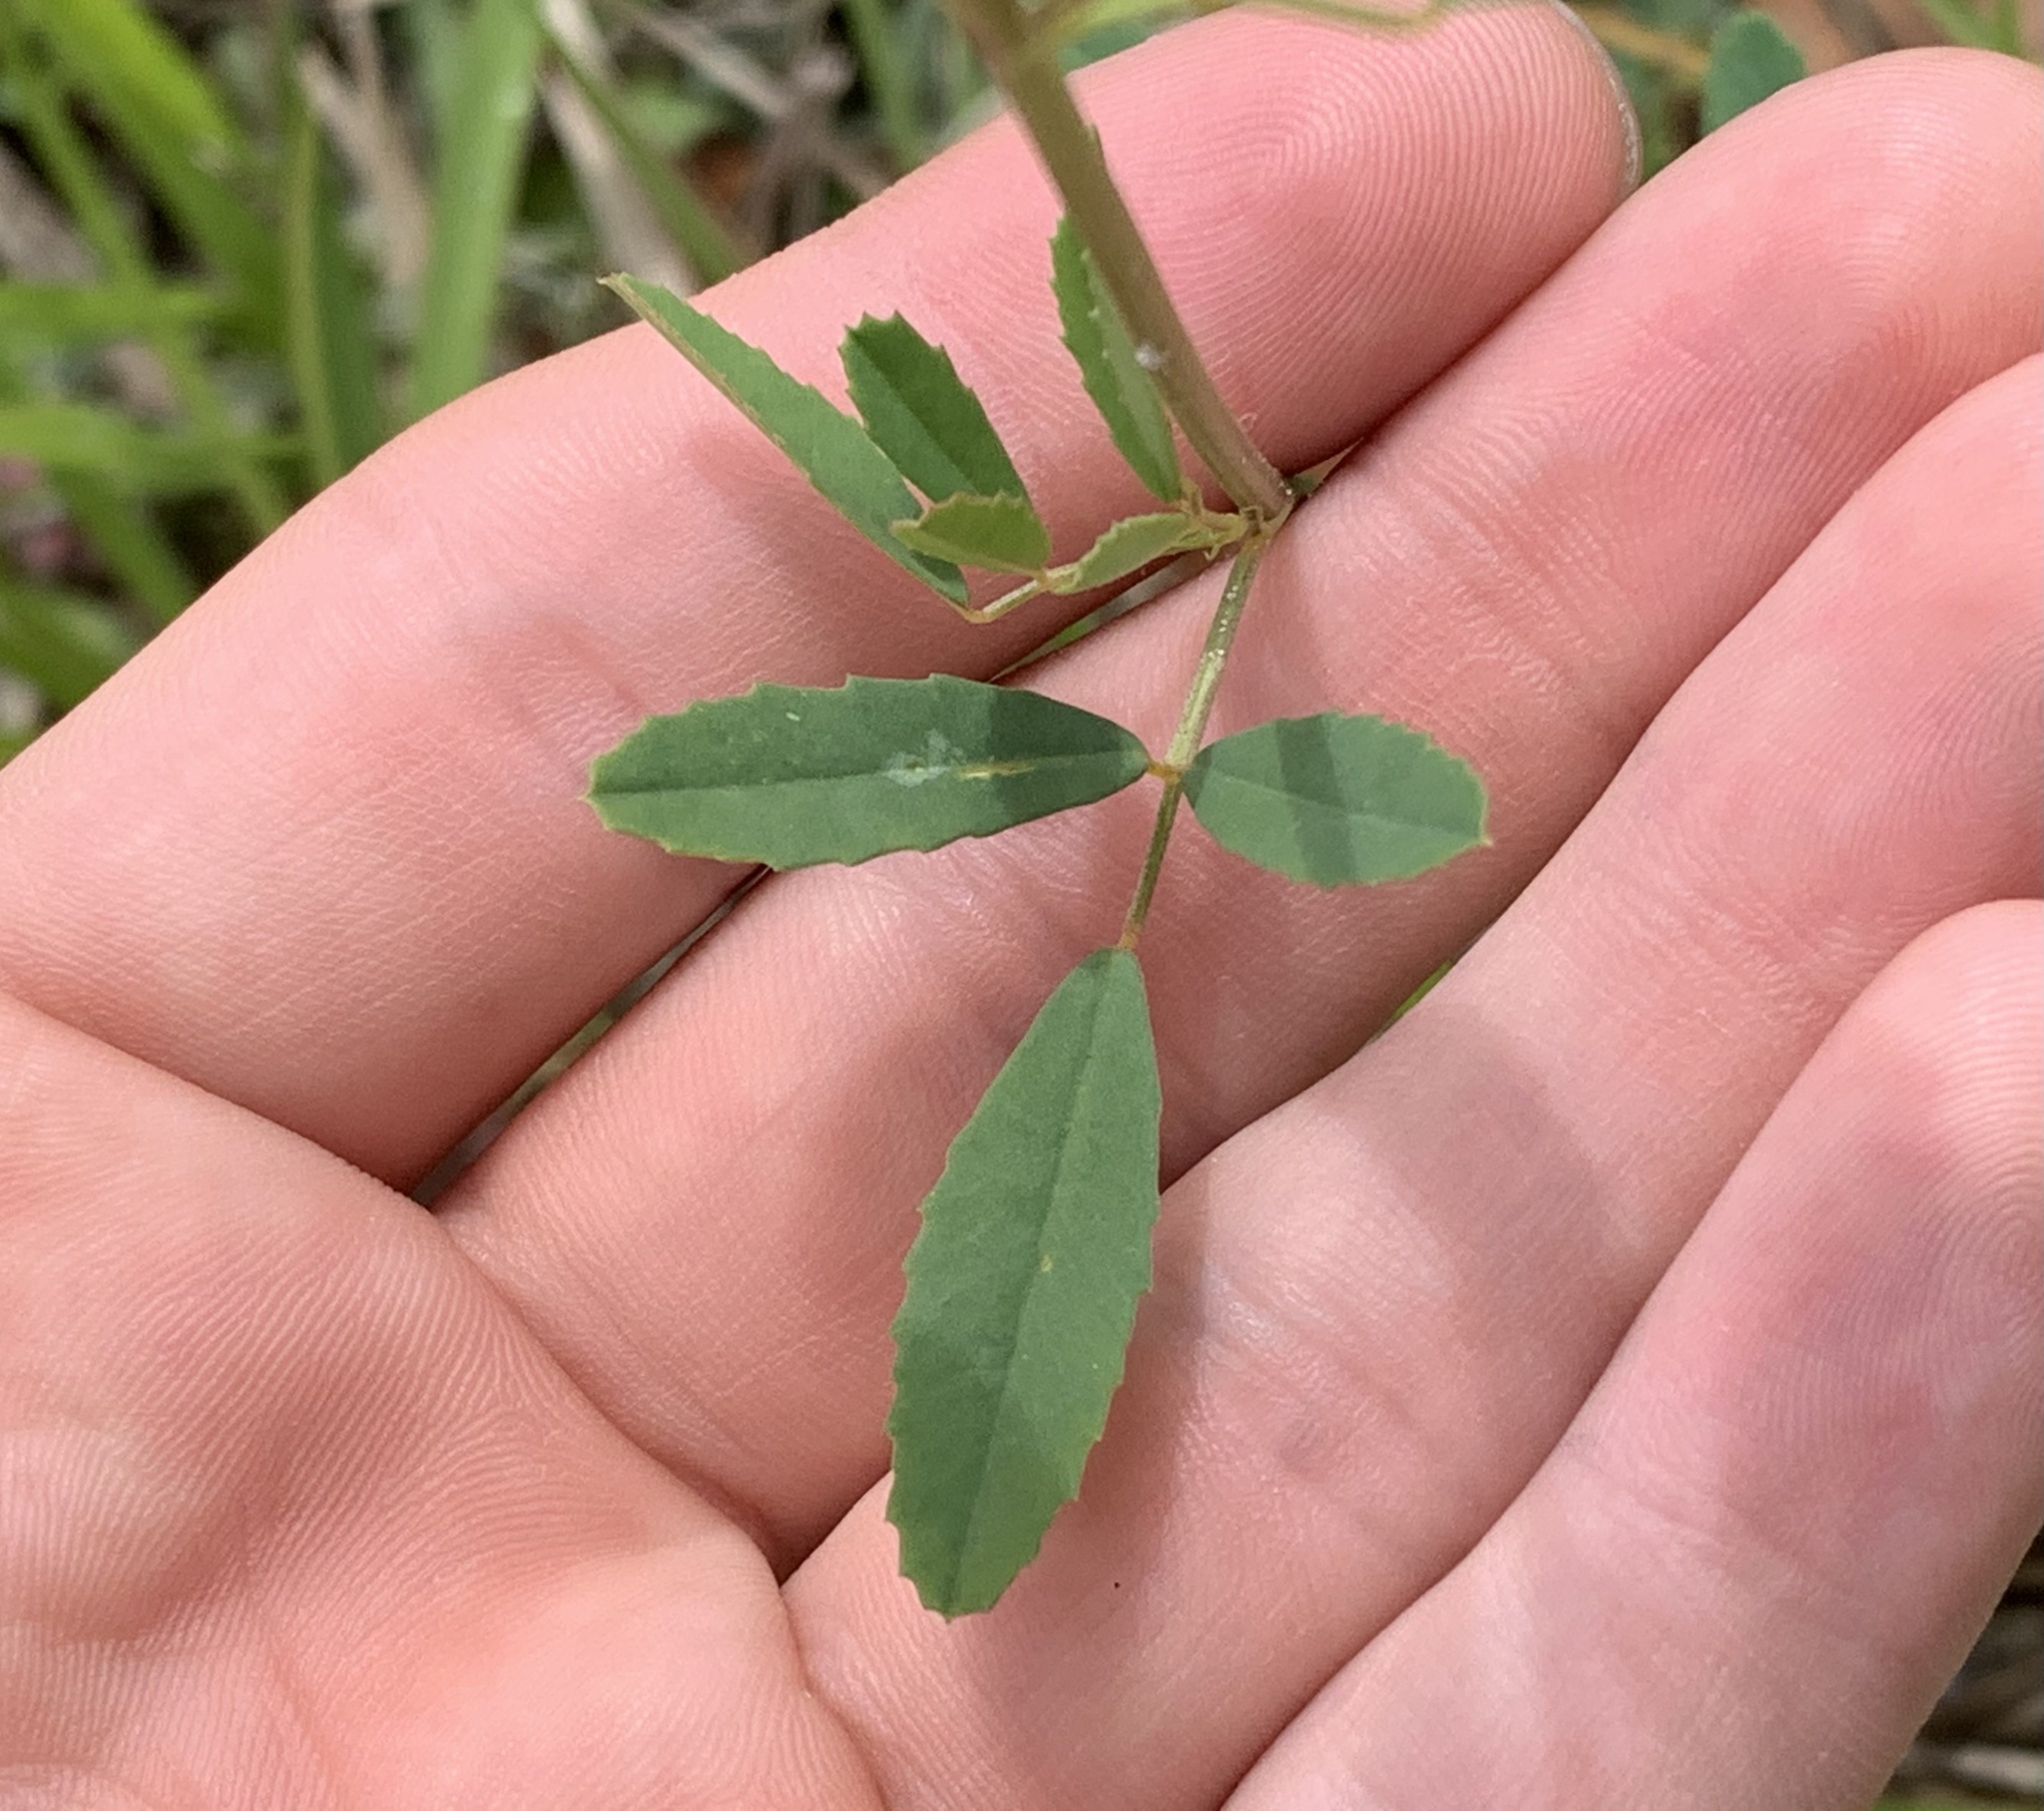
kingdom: Plantae
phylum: Tracheophyta
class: Magnoliopsida
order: Fabales
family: Fabaceae
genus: Melilotus
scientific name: Melilotus albus
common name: White melilot
